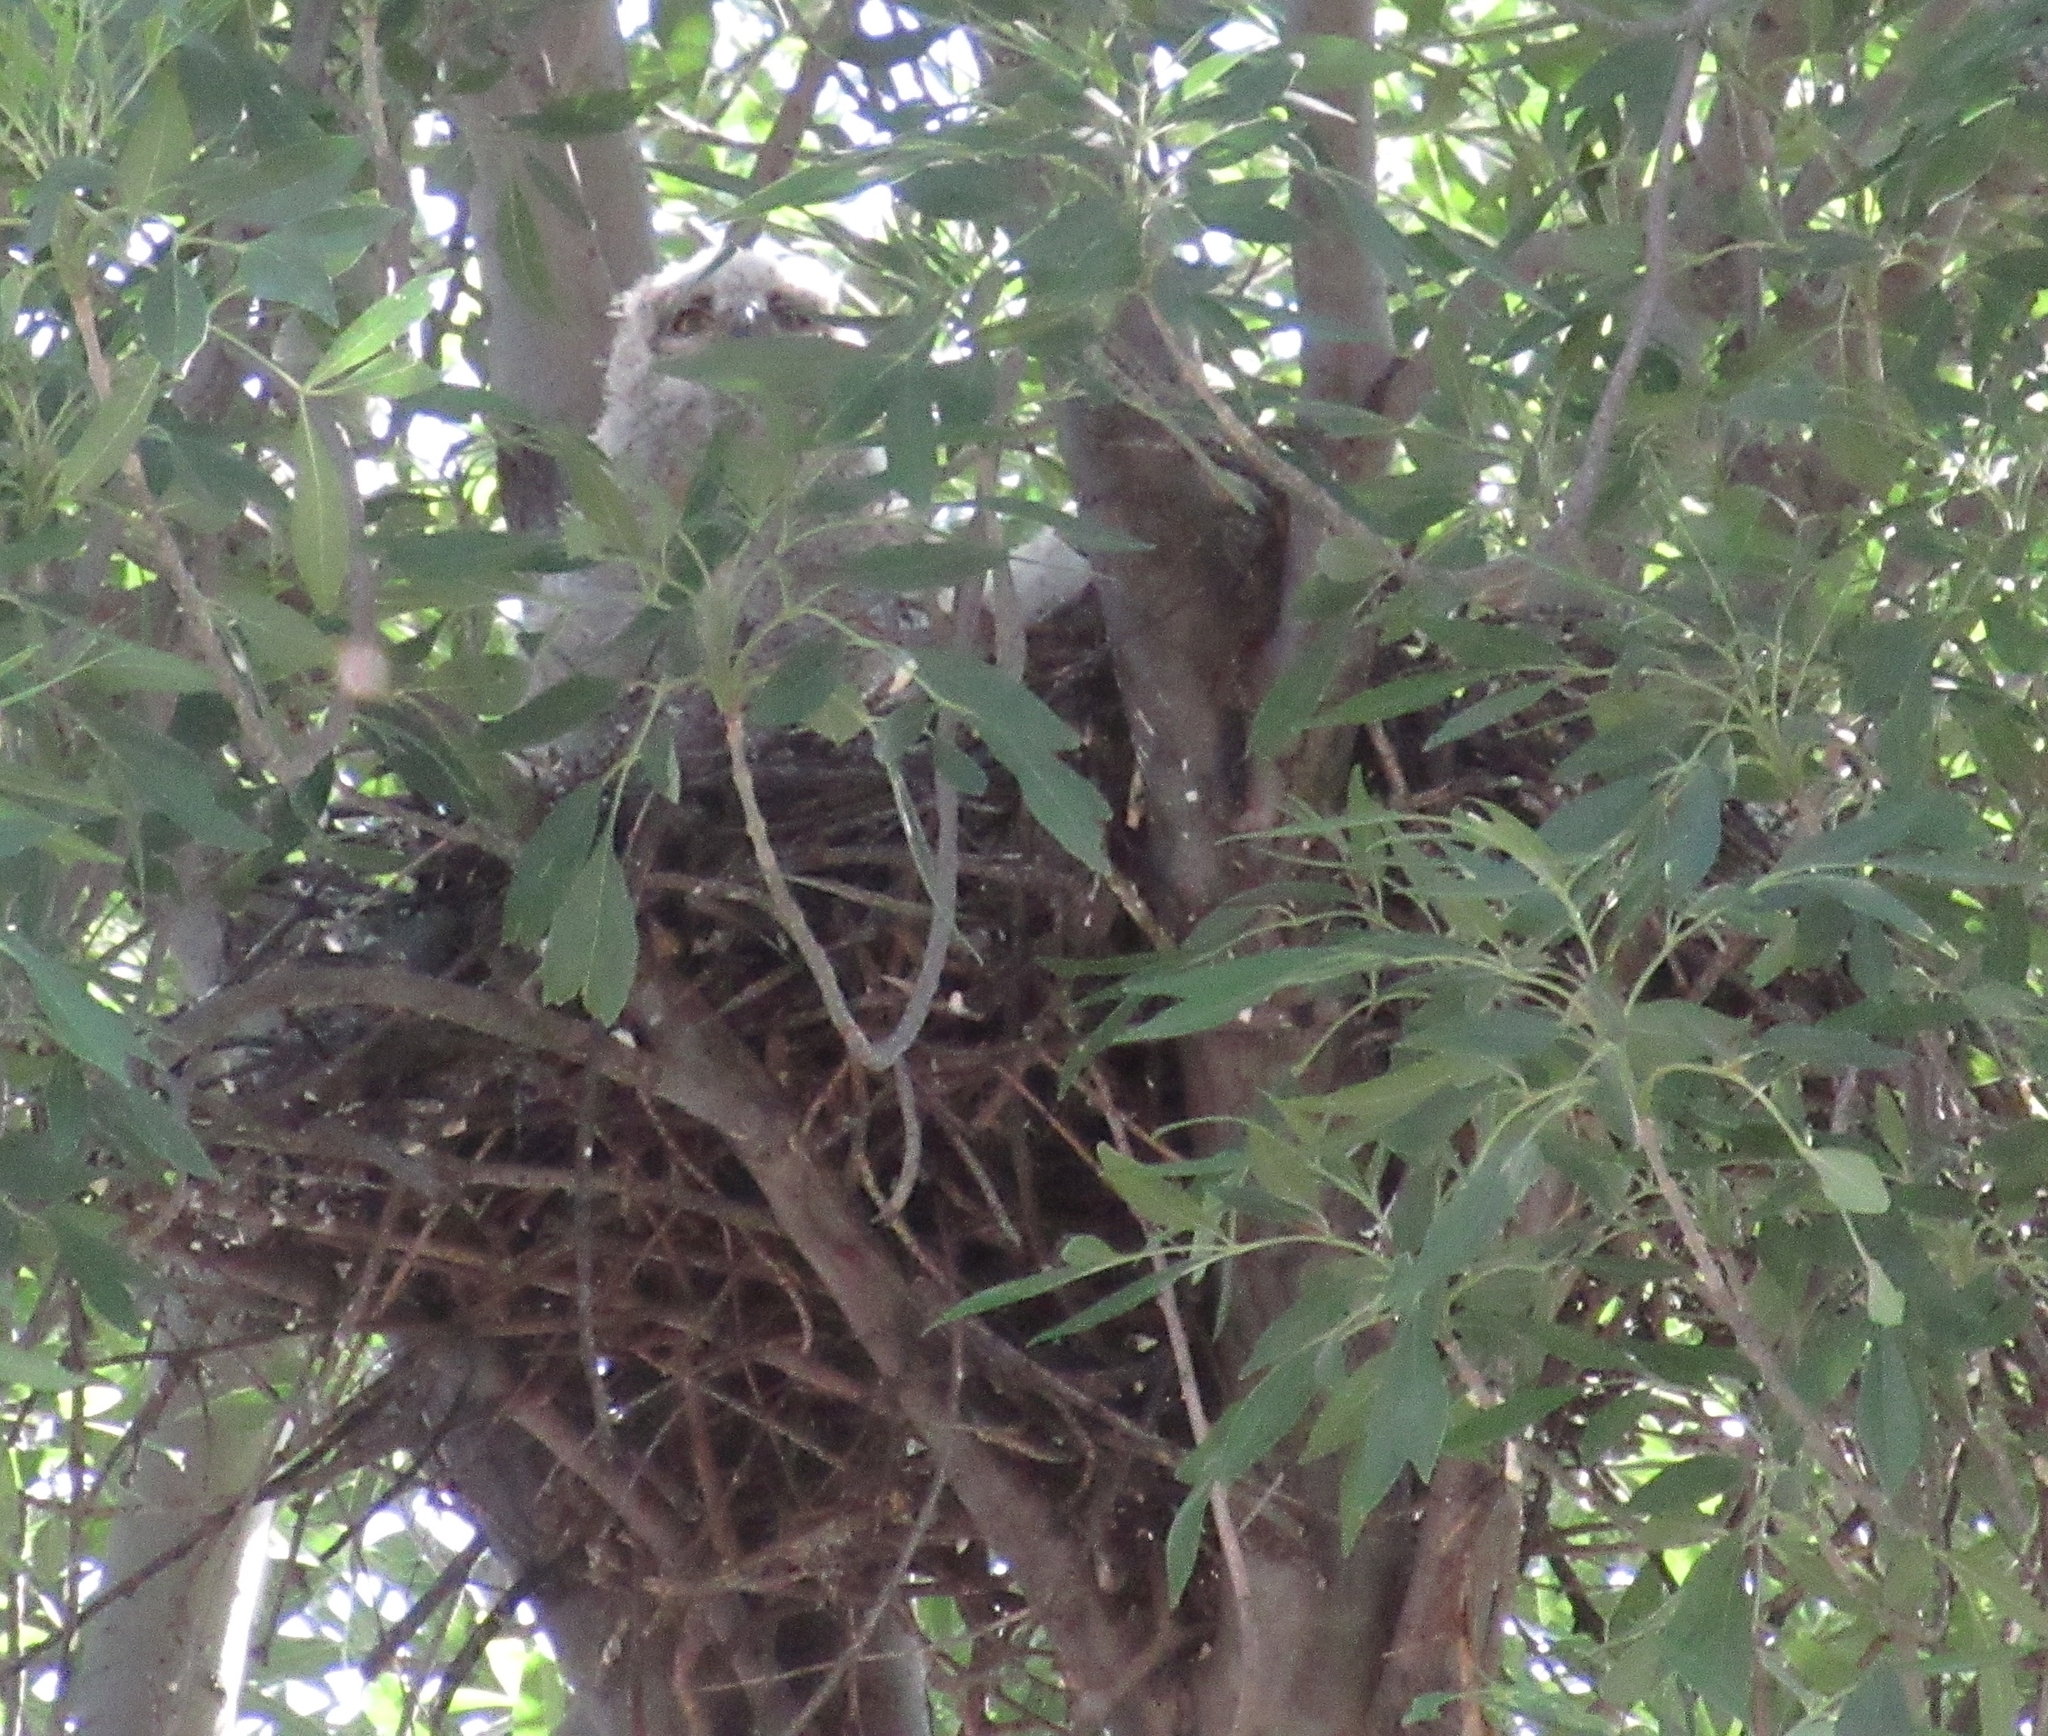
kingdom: Animalia
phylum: Chordata
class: Aves
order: Strigiformes
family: Strigidae
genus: Bubo
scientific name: Bubo virginianus
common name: Great horned owl
